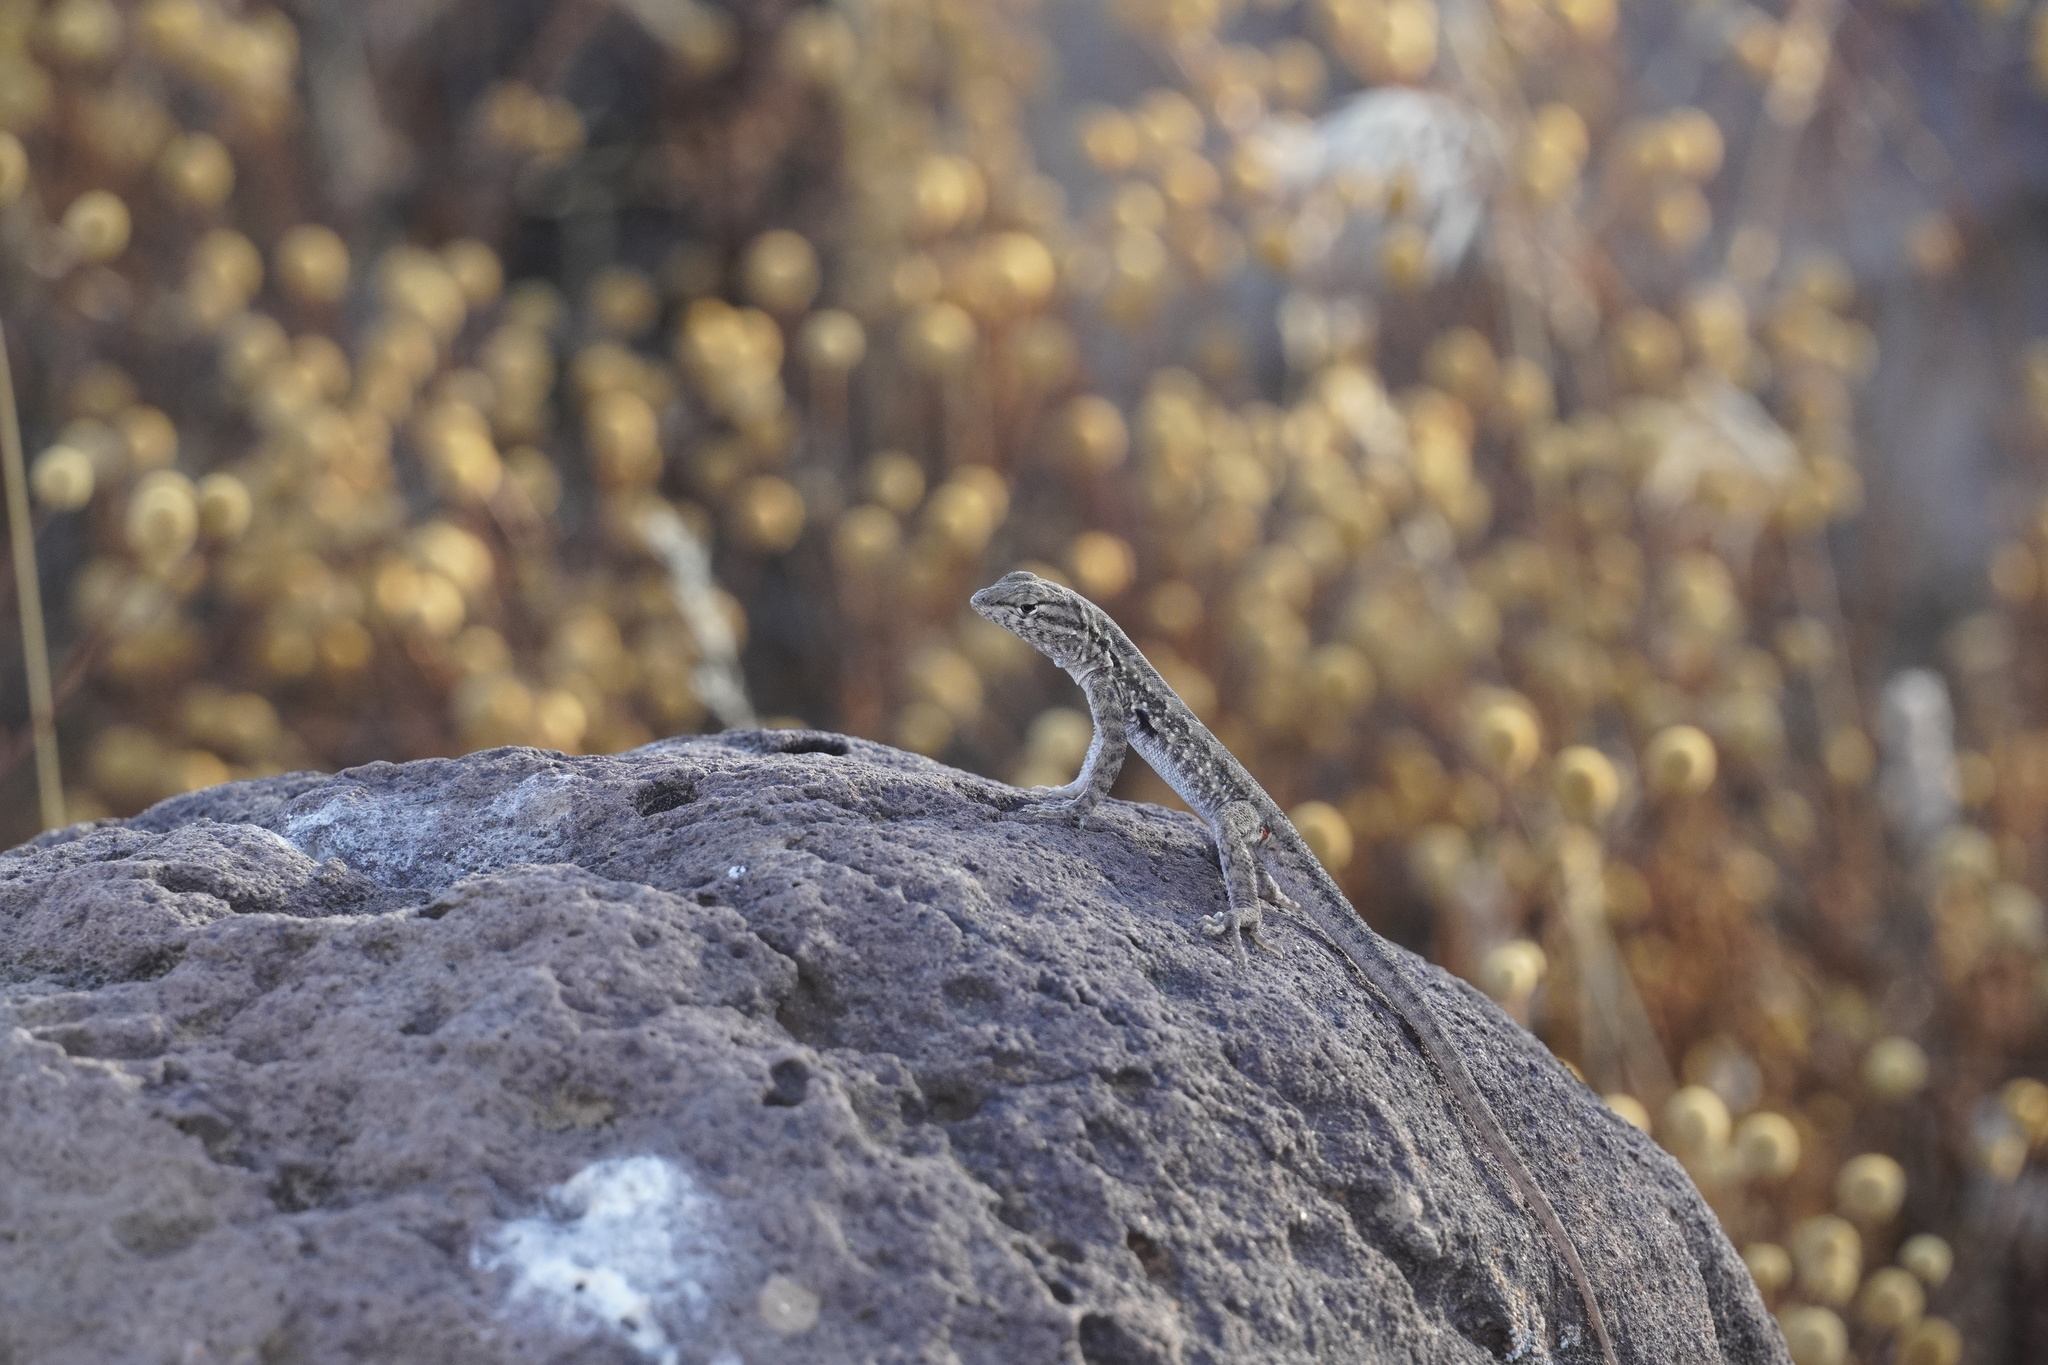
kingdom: Animalia
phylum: Chordata
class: Squamata
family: Phrynosomatidae
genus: Uta
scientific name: Uta stansburiana
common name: Side-blotched lizard
